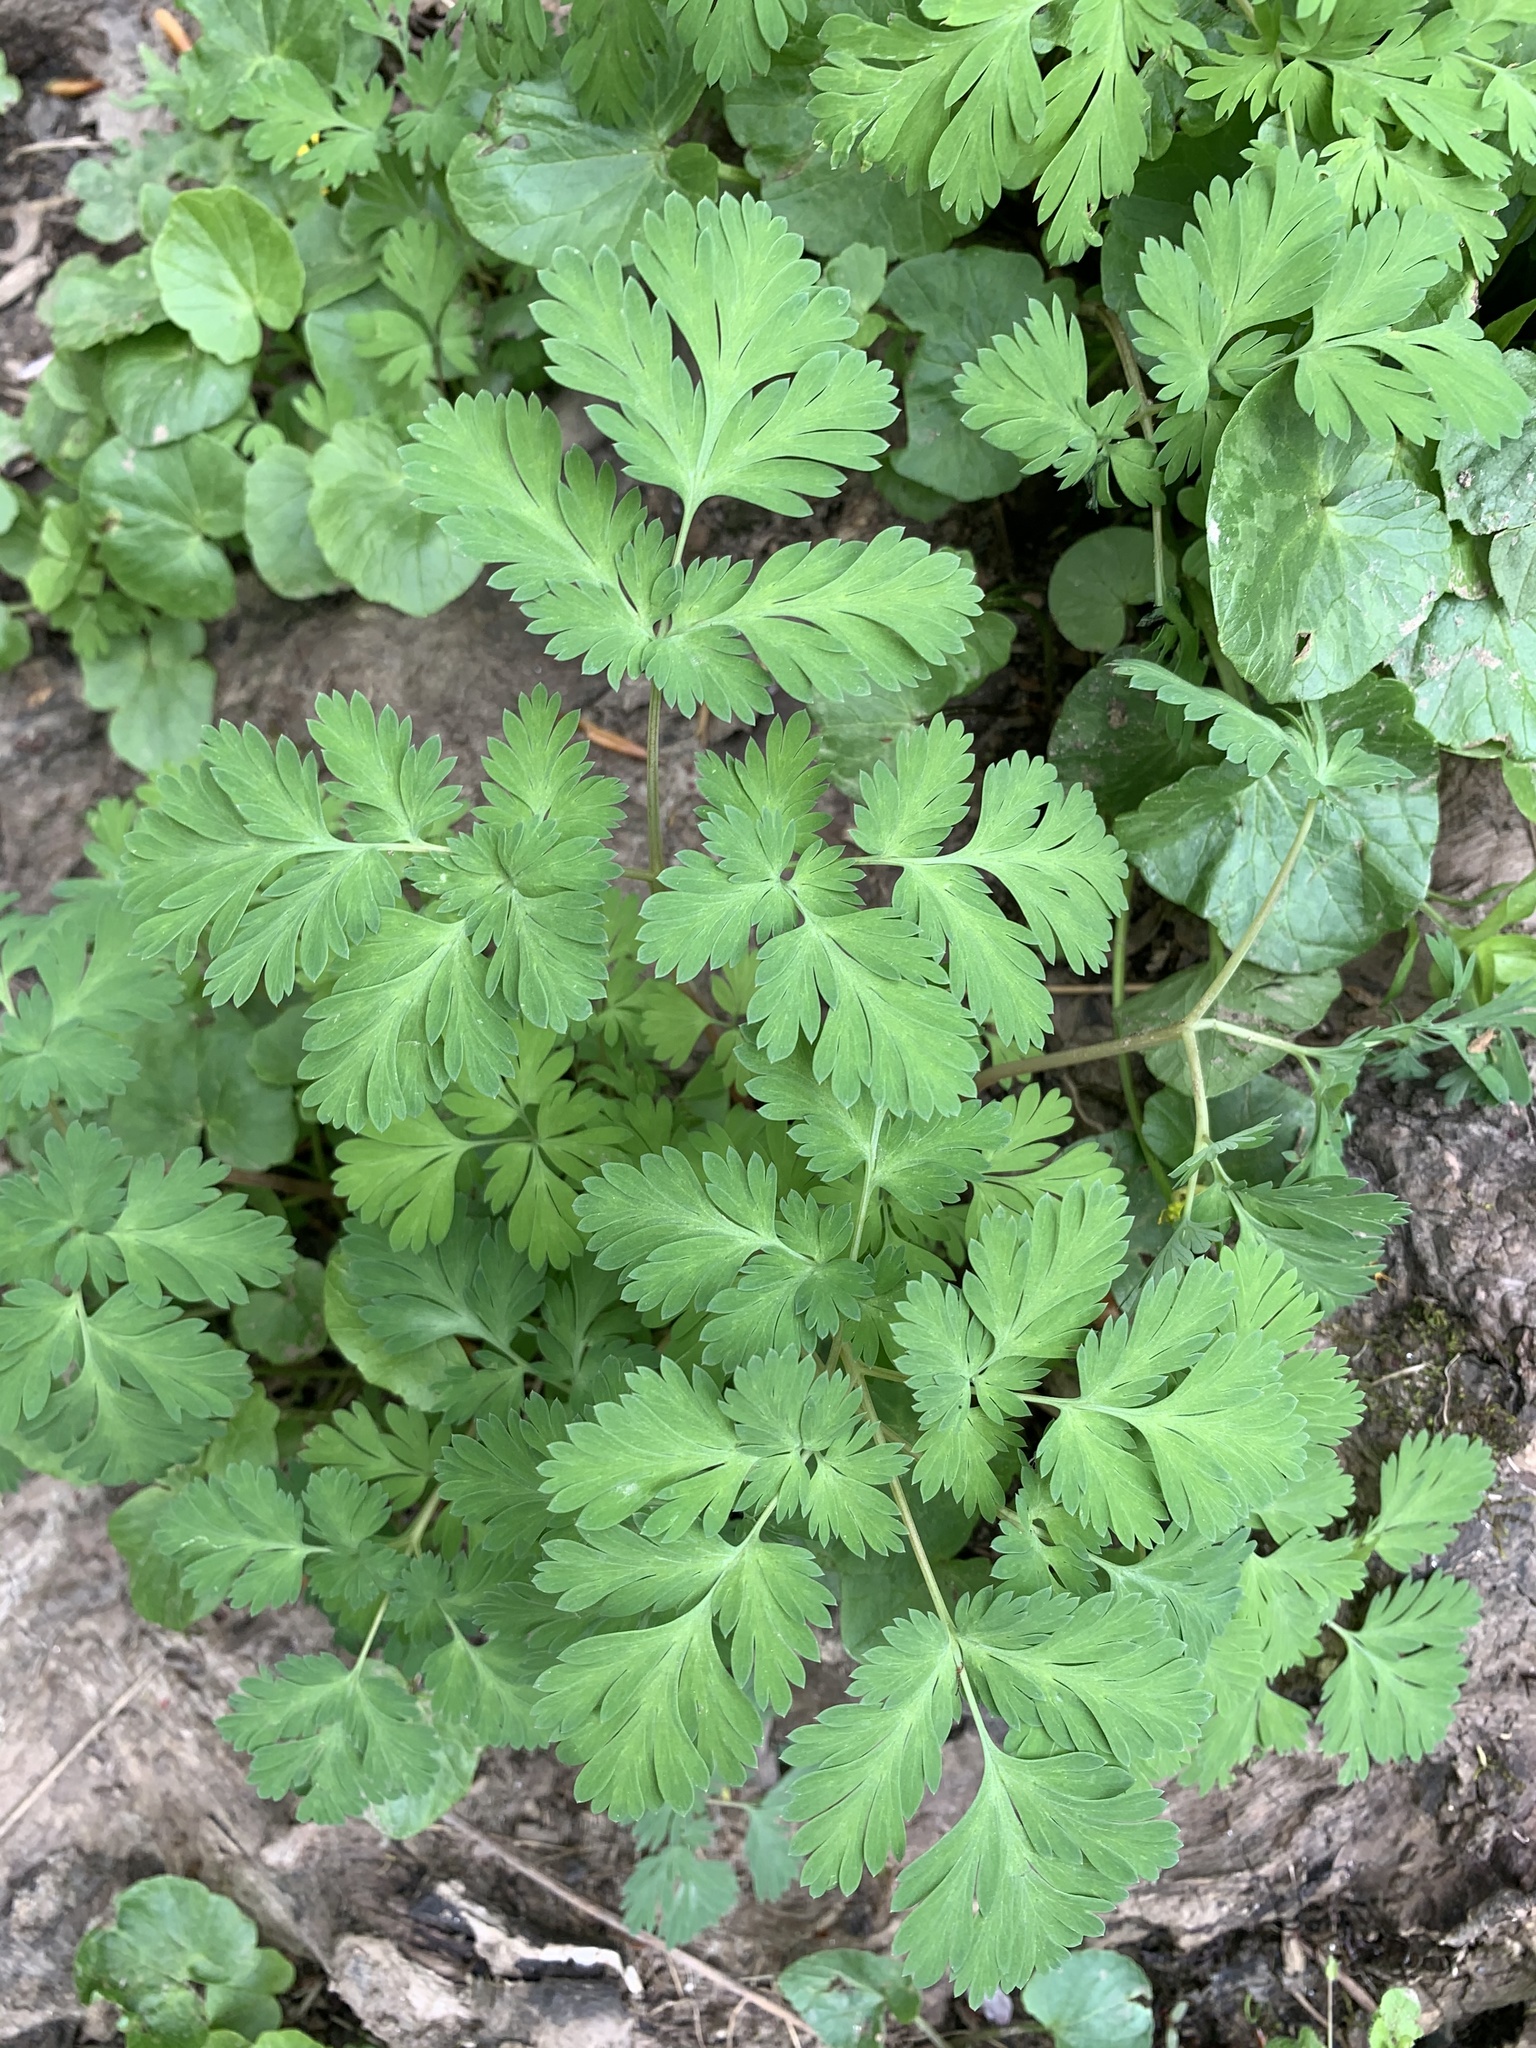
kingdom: Plantae
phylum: Tracheophyta
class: Magnoliopsida
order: Ranunculales
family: Papaveraceae
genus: Dicentra
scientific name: Dicentra cucullaria
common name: Dutchman's breeches
